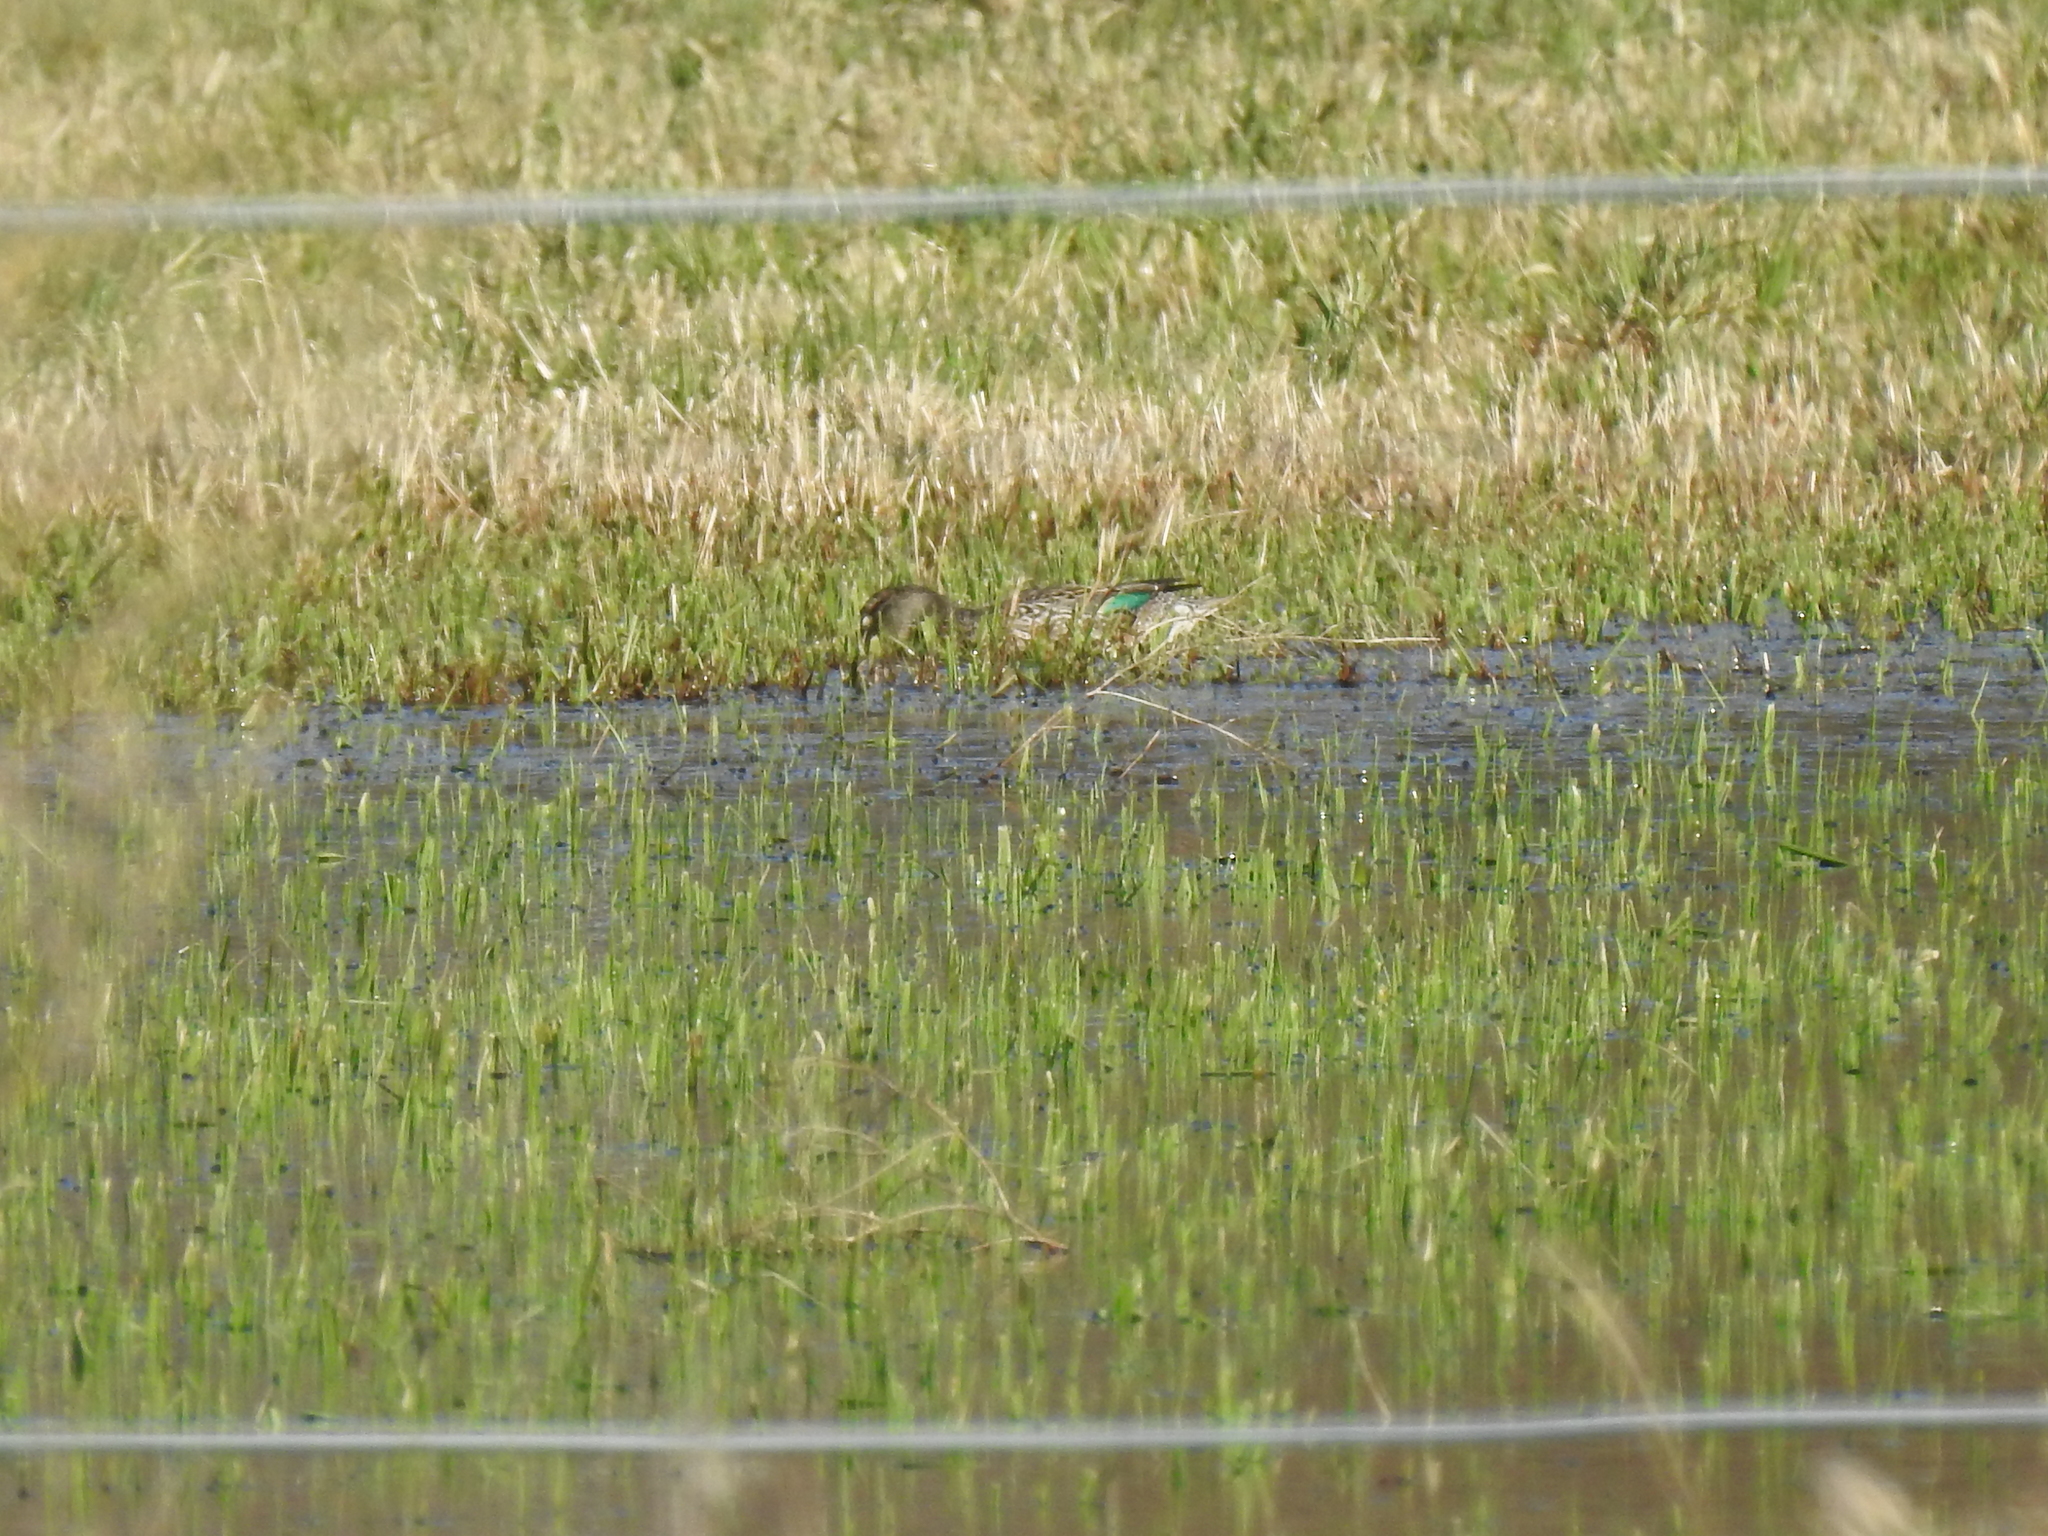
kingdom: Animalia
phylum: Chordata
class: Aves
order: Anseriformes
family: Anatidae
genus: Anas
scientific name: Anas crecca
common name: Eurasian teal
